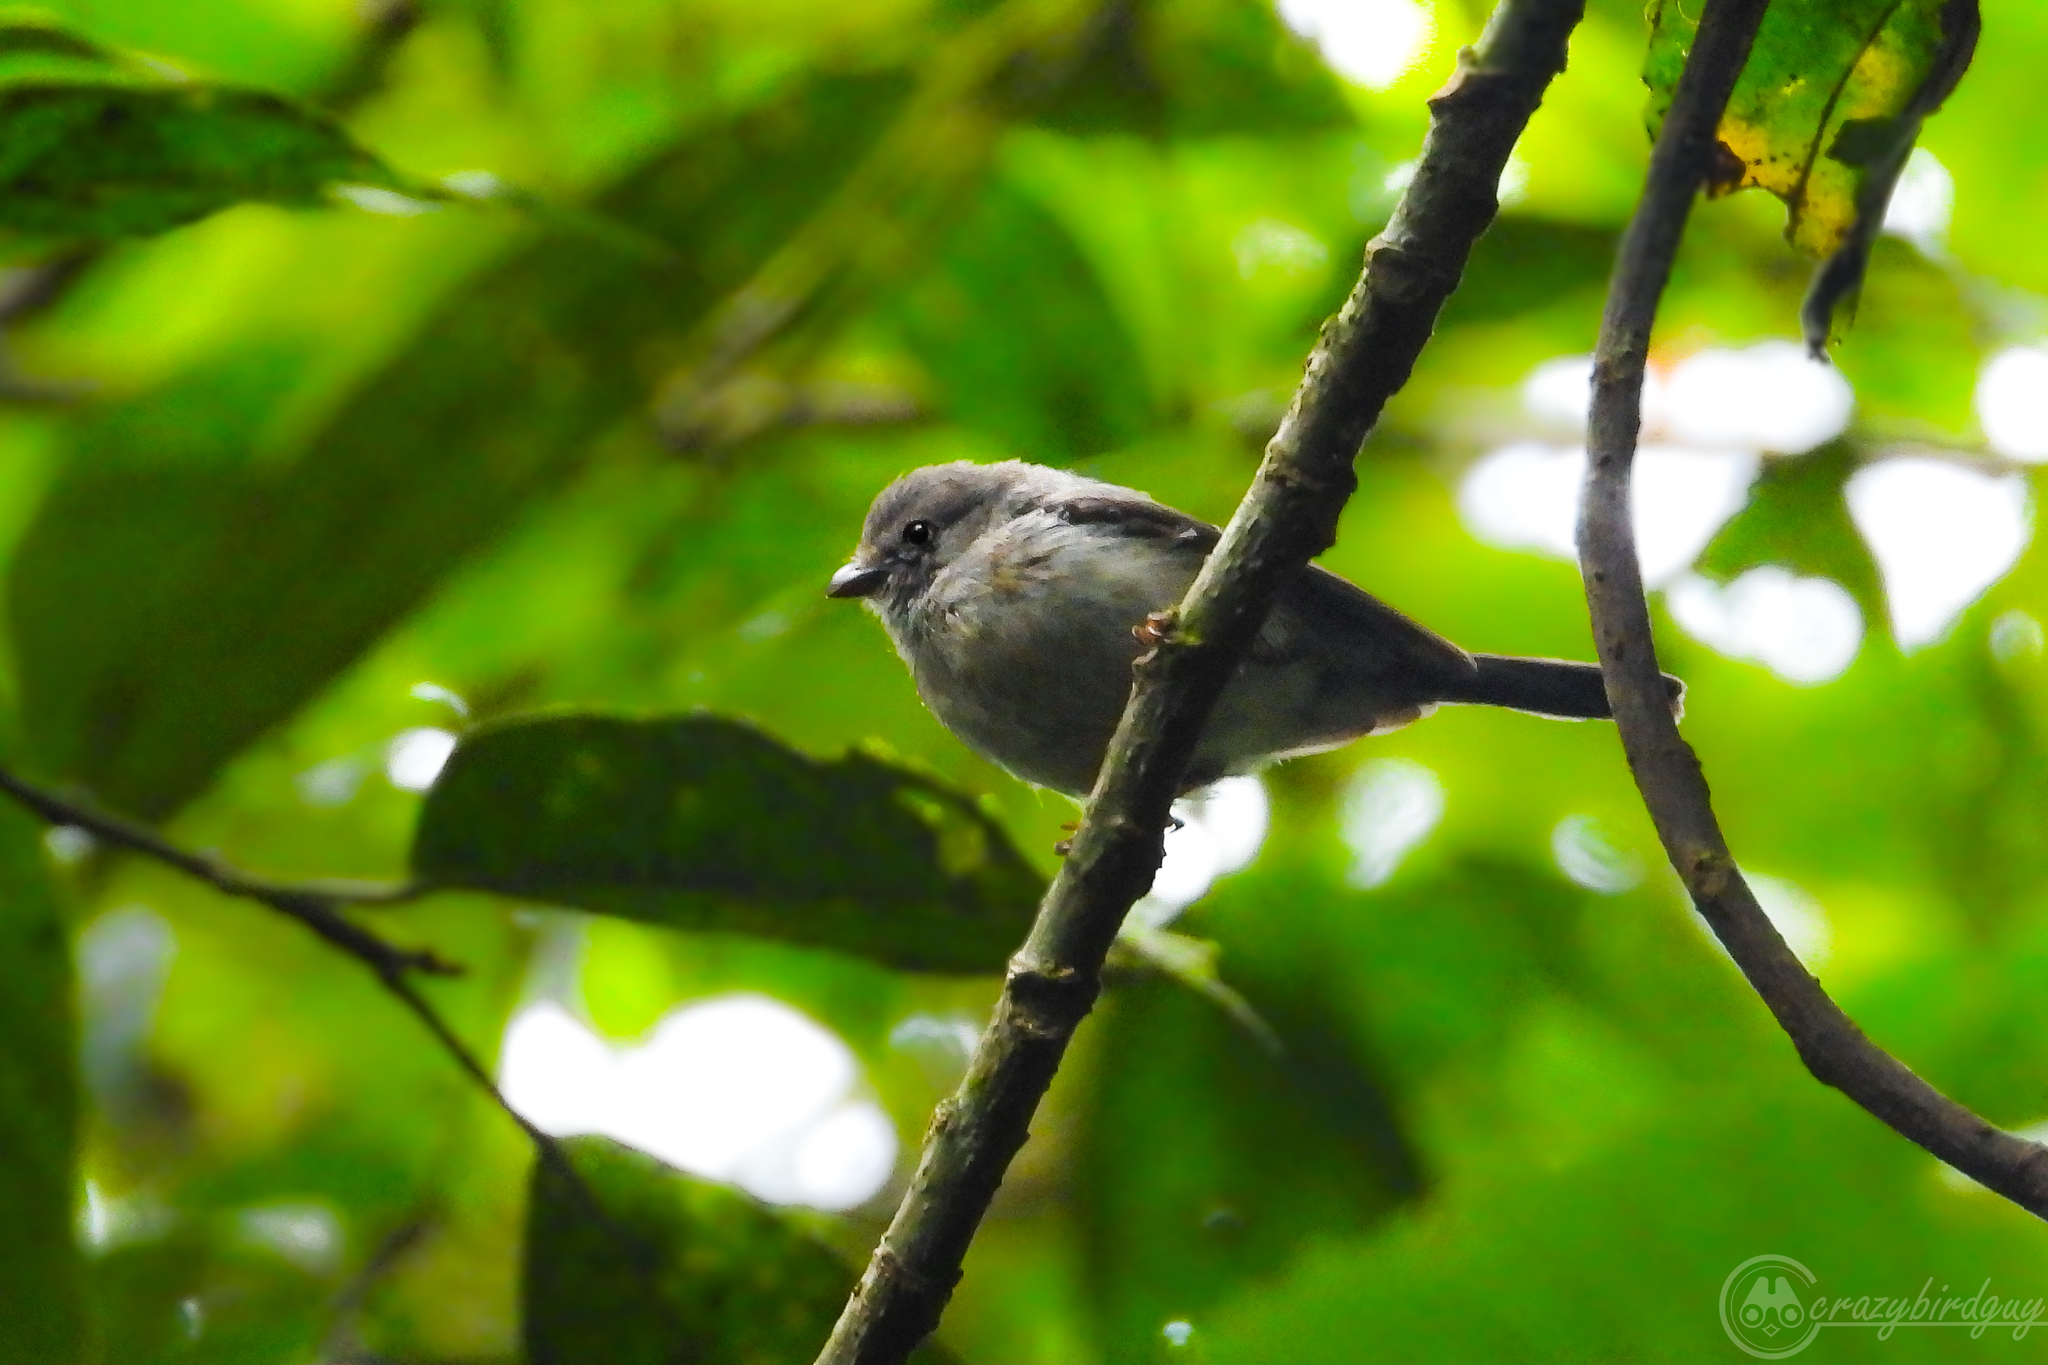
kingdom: Animalia
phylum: Chordata
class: Aves
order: Passeriformes
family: Aegithalidae
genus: Psaltria
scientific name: Psaltria exilis
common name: Pygmy bushtit
